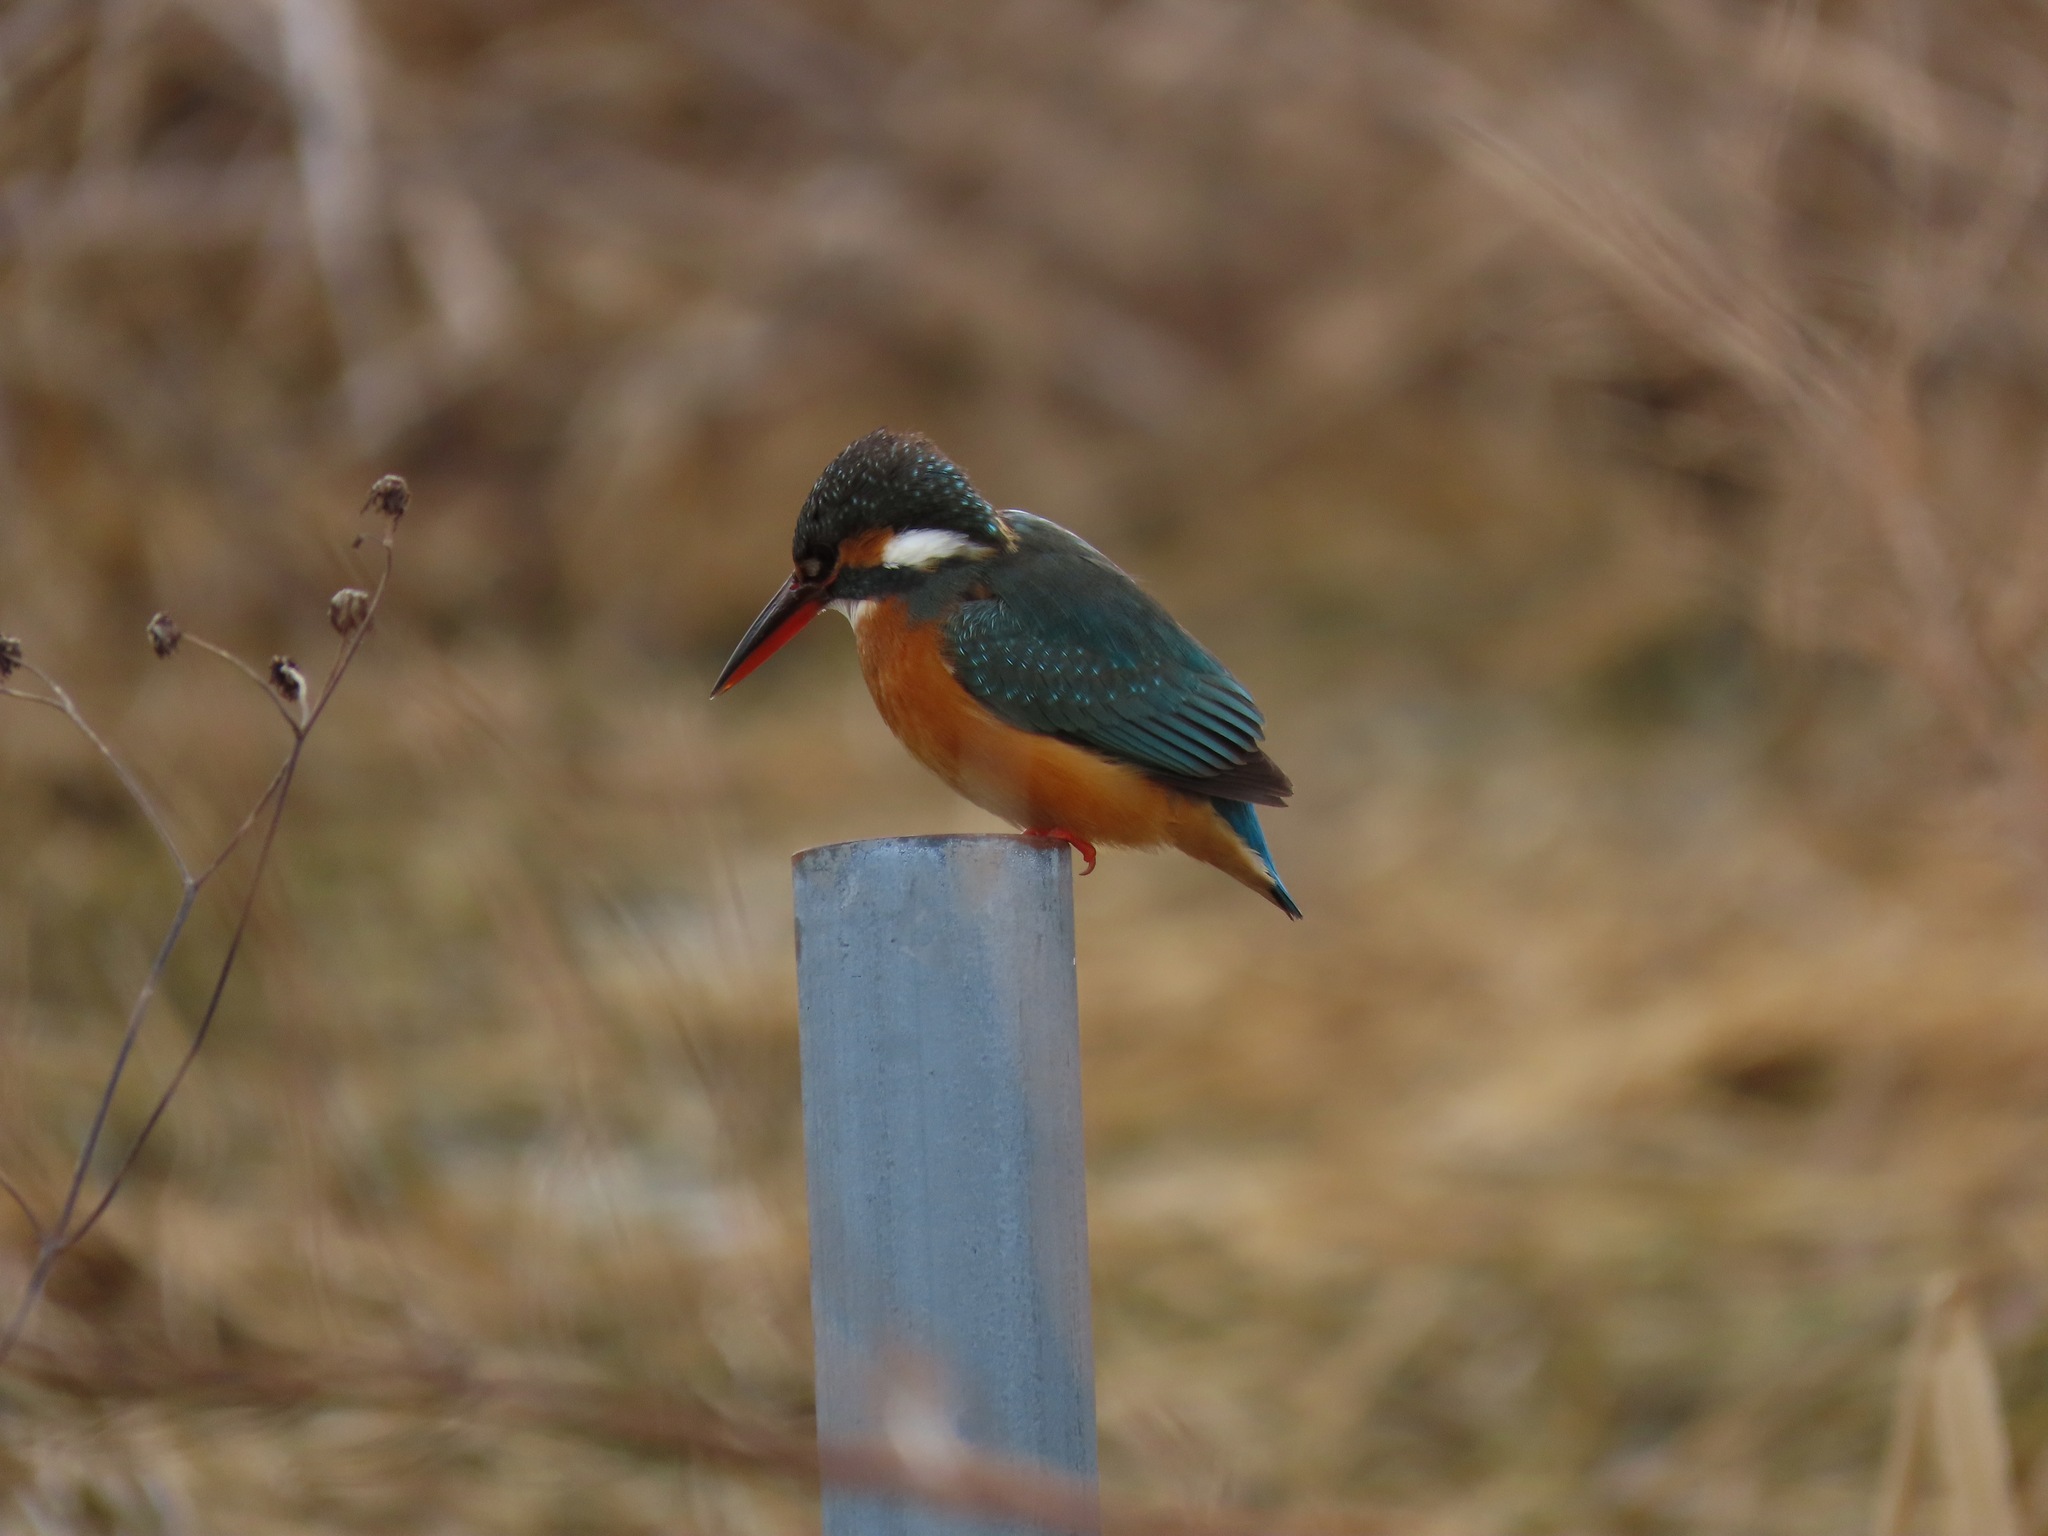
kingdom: Animalia
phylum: Chordata
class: Aves
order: Coraciiformes
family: Alcedinidae
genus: Alcedo
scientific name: Alcedo atthis
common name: Common kingfisher
